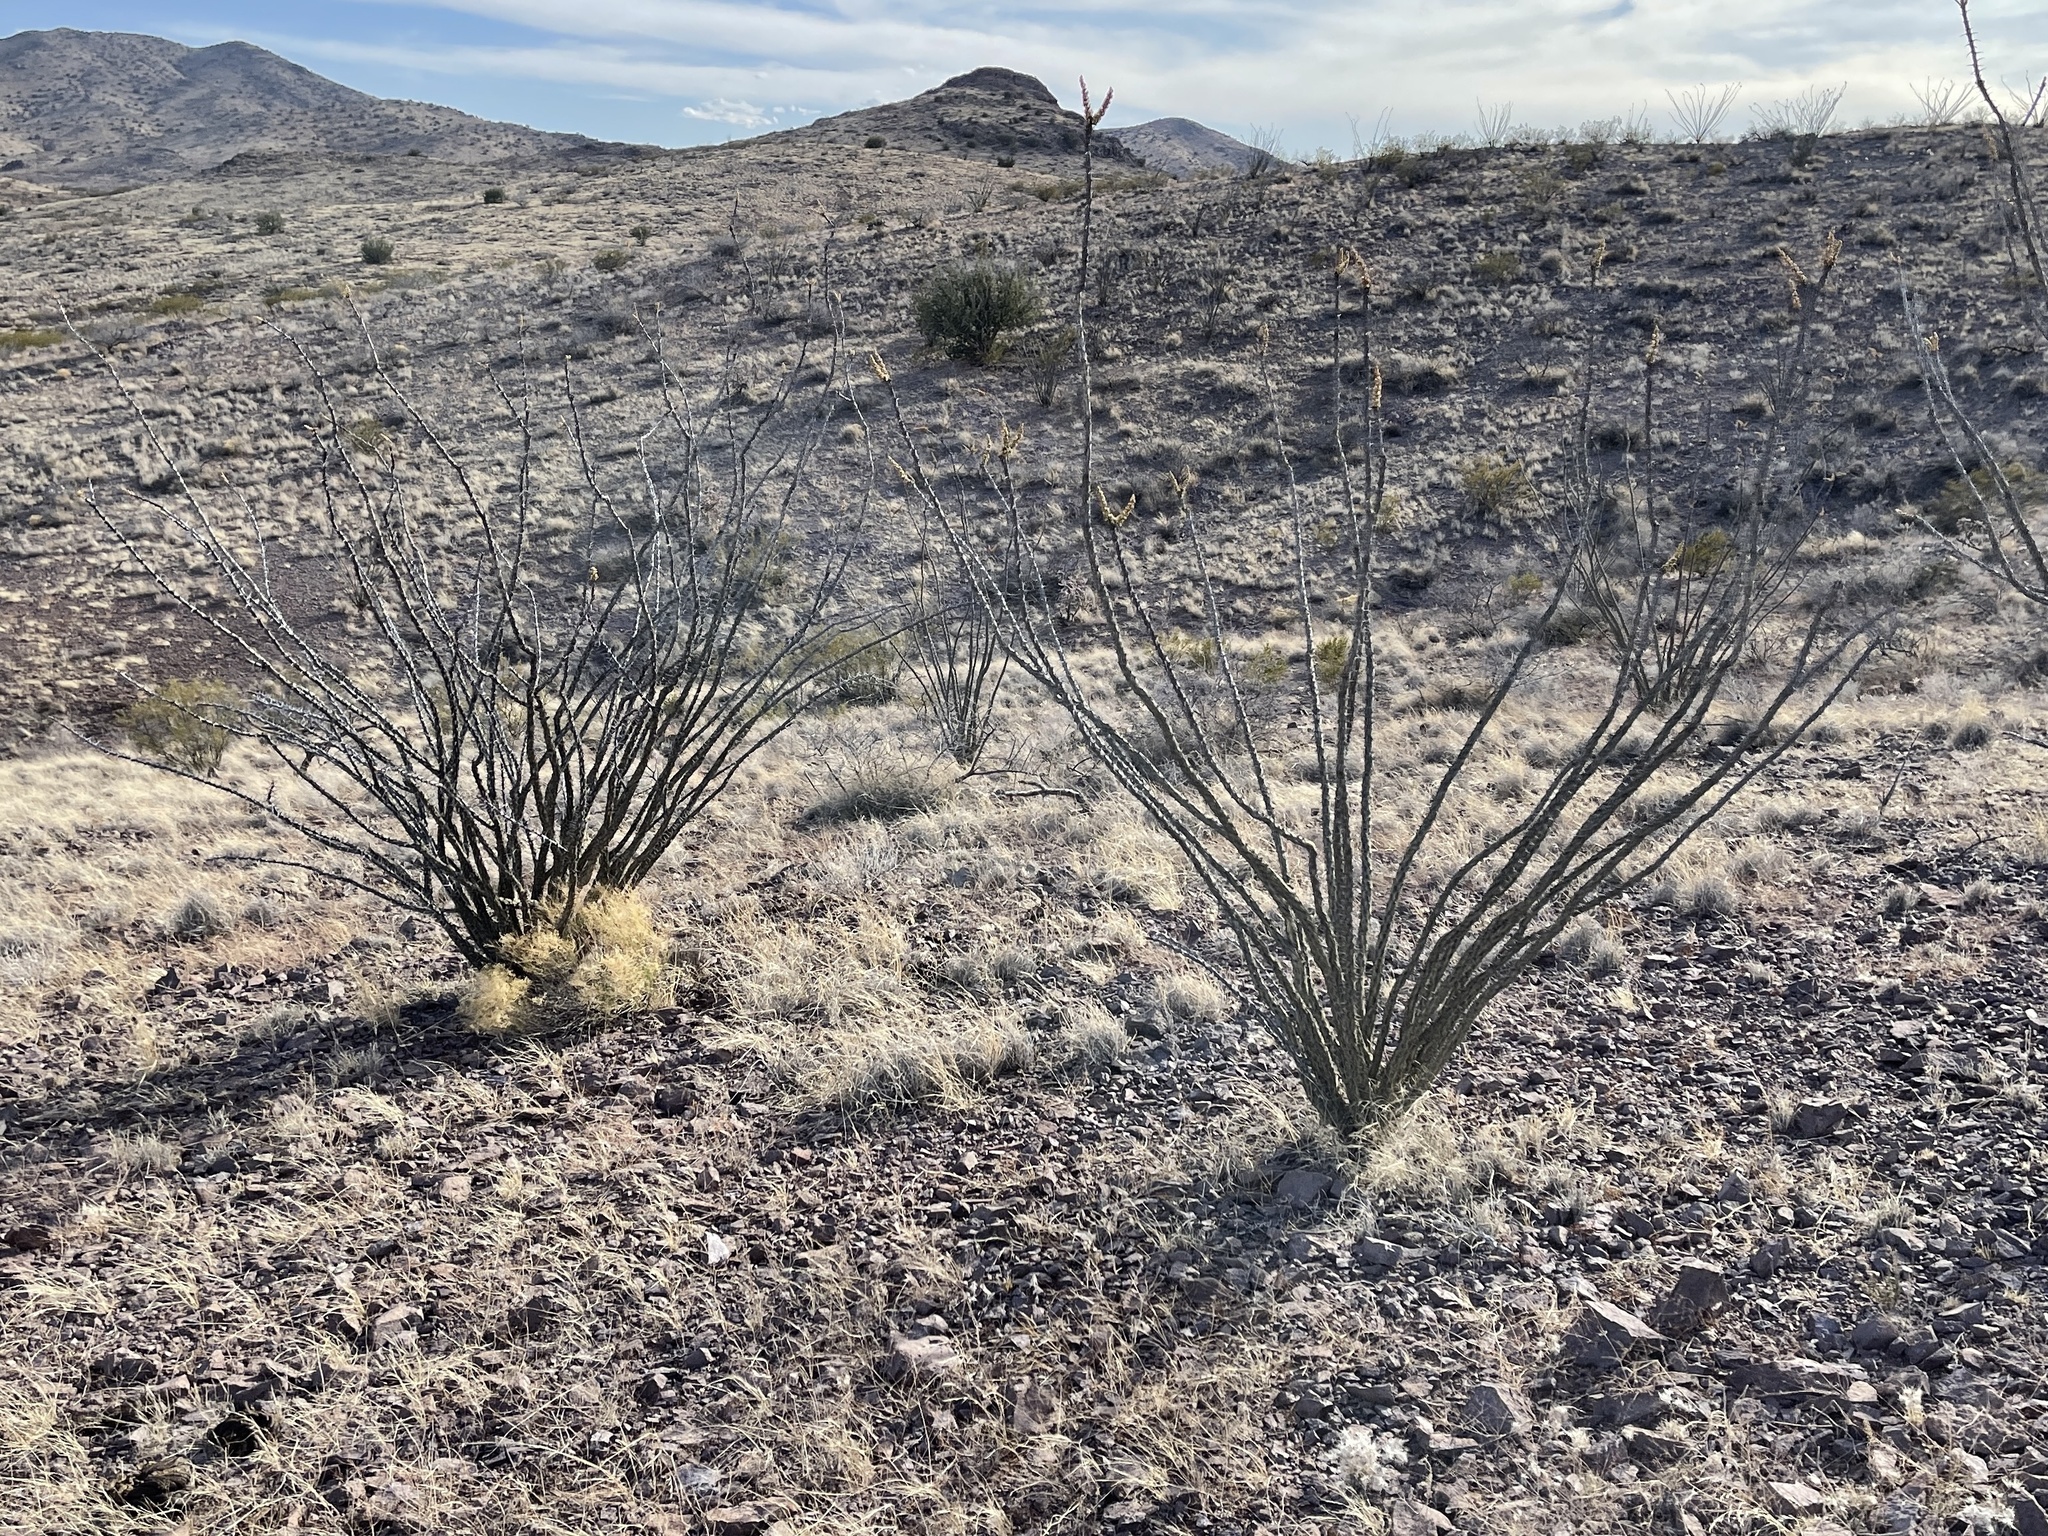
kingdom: Plantae
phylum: Tracheophyta
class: Magnoliopsida
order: Ericales
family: Fouquieriaceae
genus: Fouquieria
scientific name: Fouquieria splendens
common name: Vine-cactus
